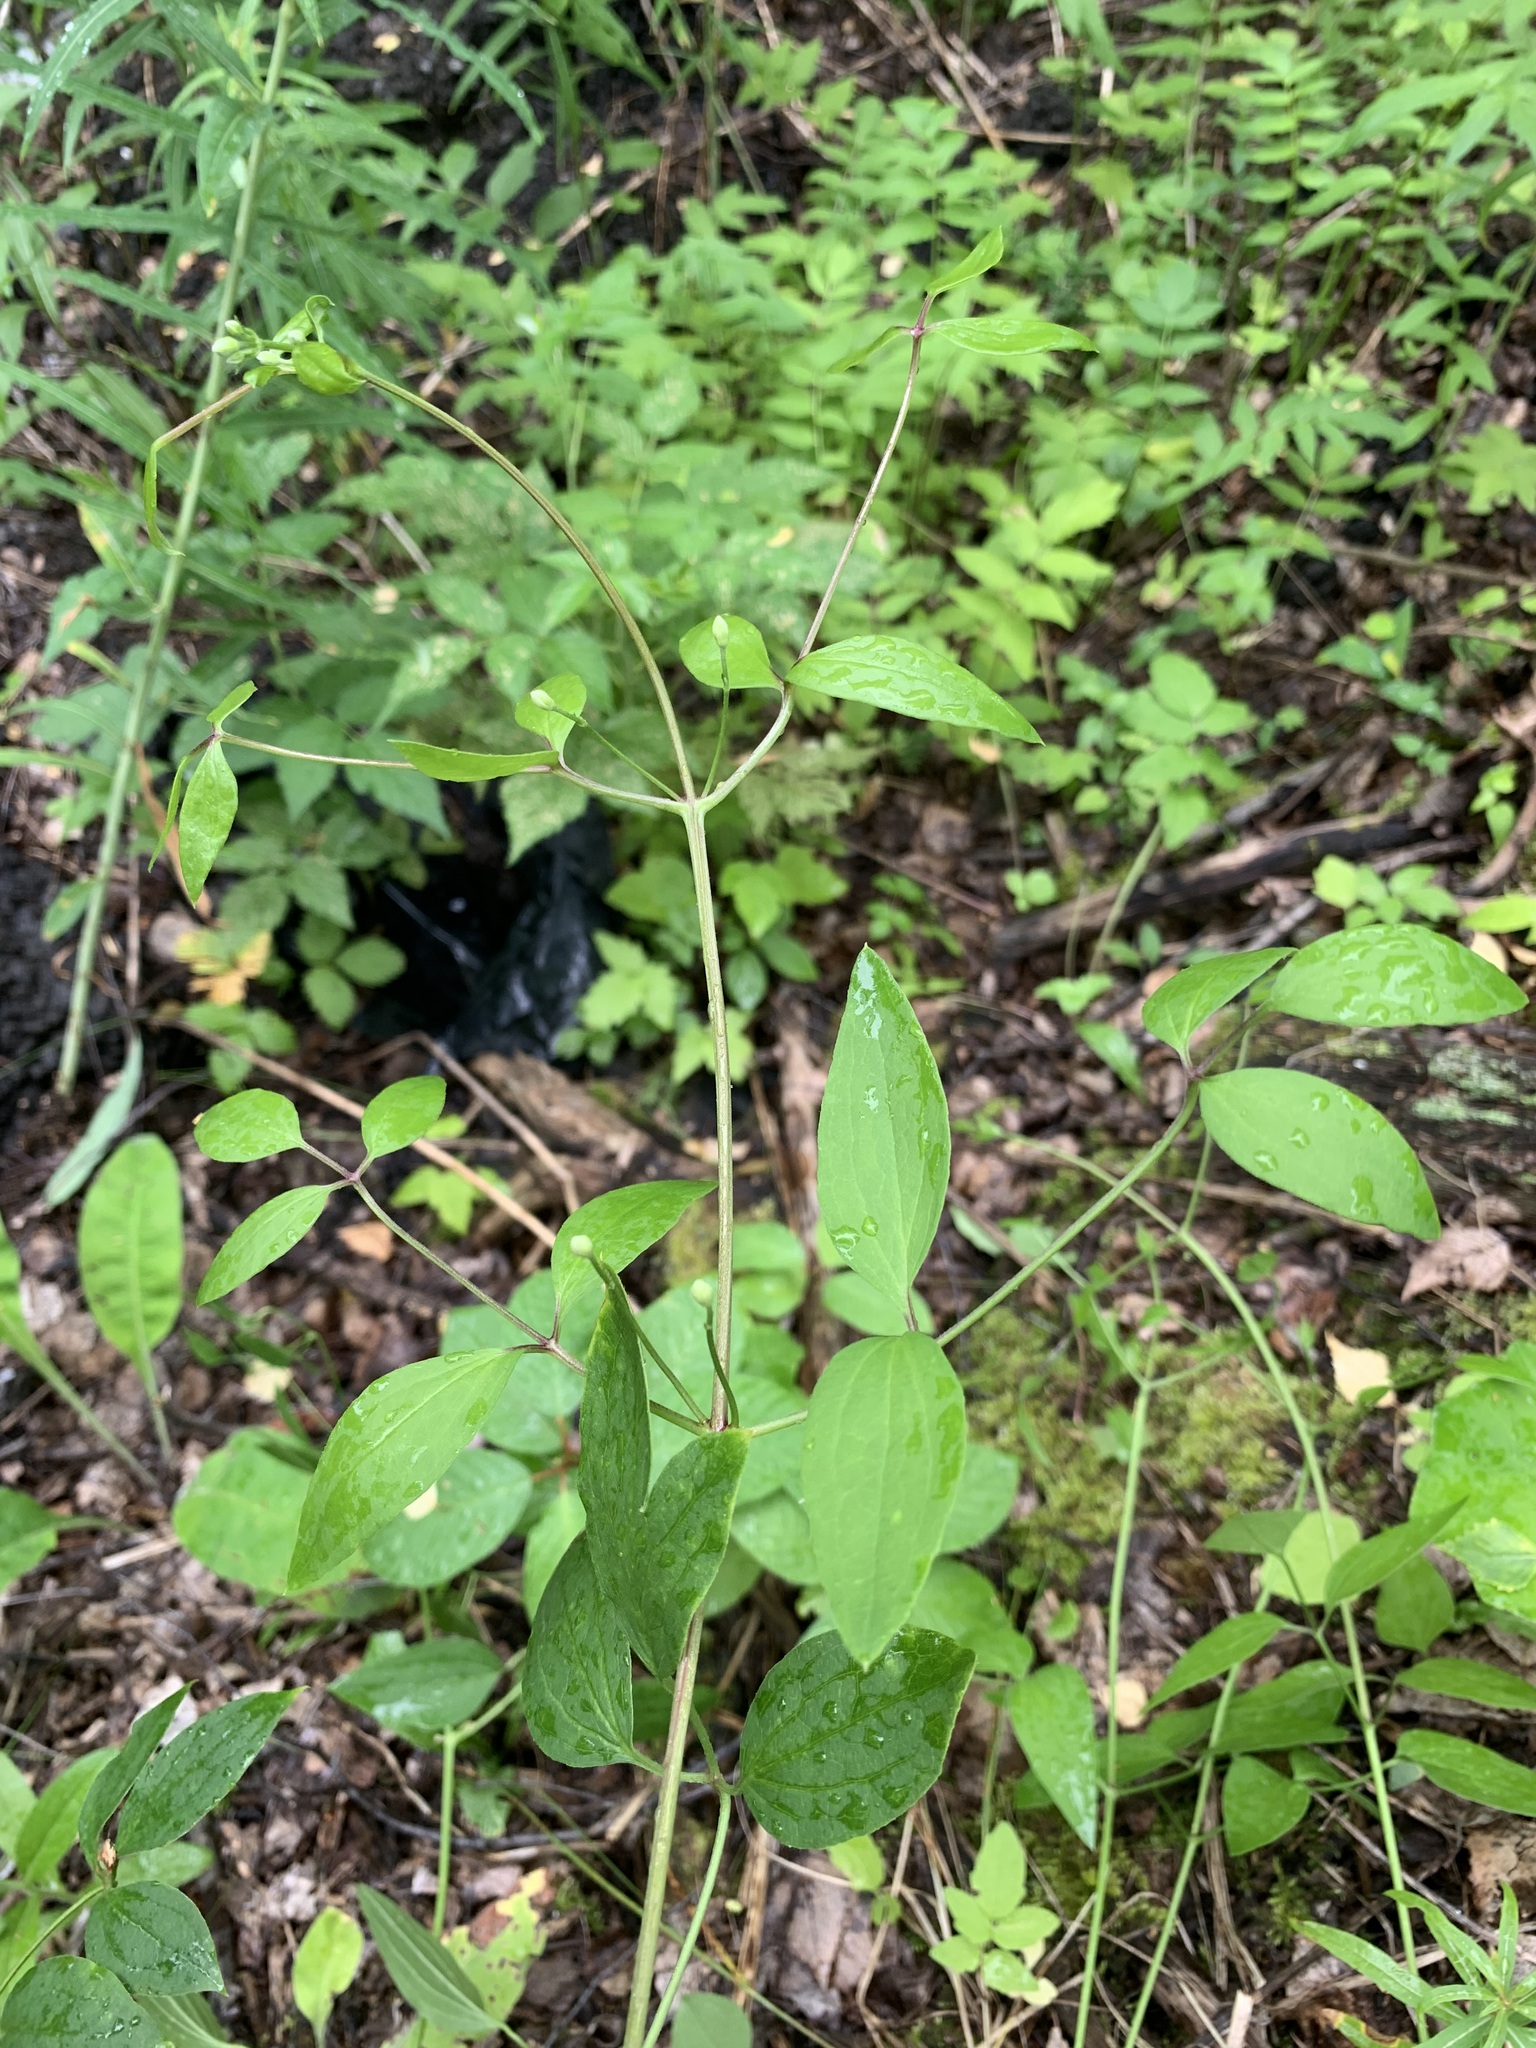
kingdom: Plantae
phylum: Tracheophyta
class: Magnoliopsida
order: Ranunculales
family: Ranunculaceae
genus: Clematis
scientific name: Clematis recta
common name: Ground clematis
